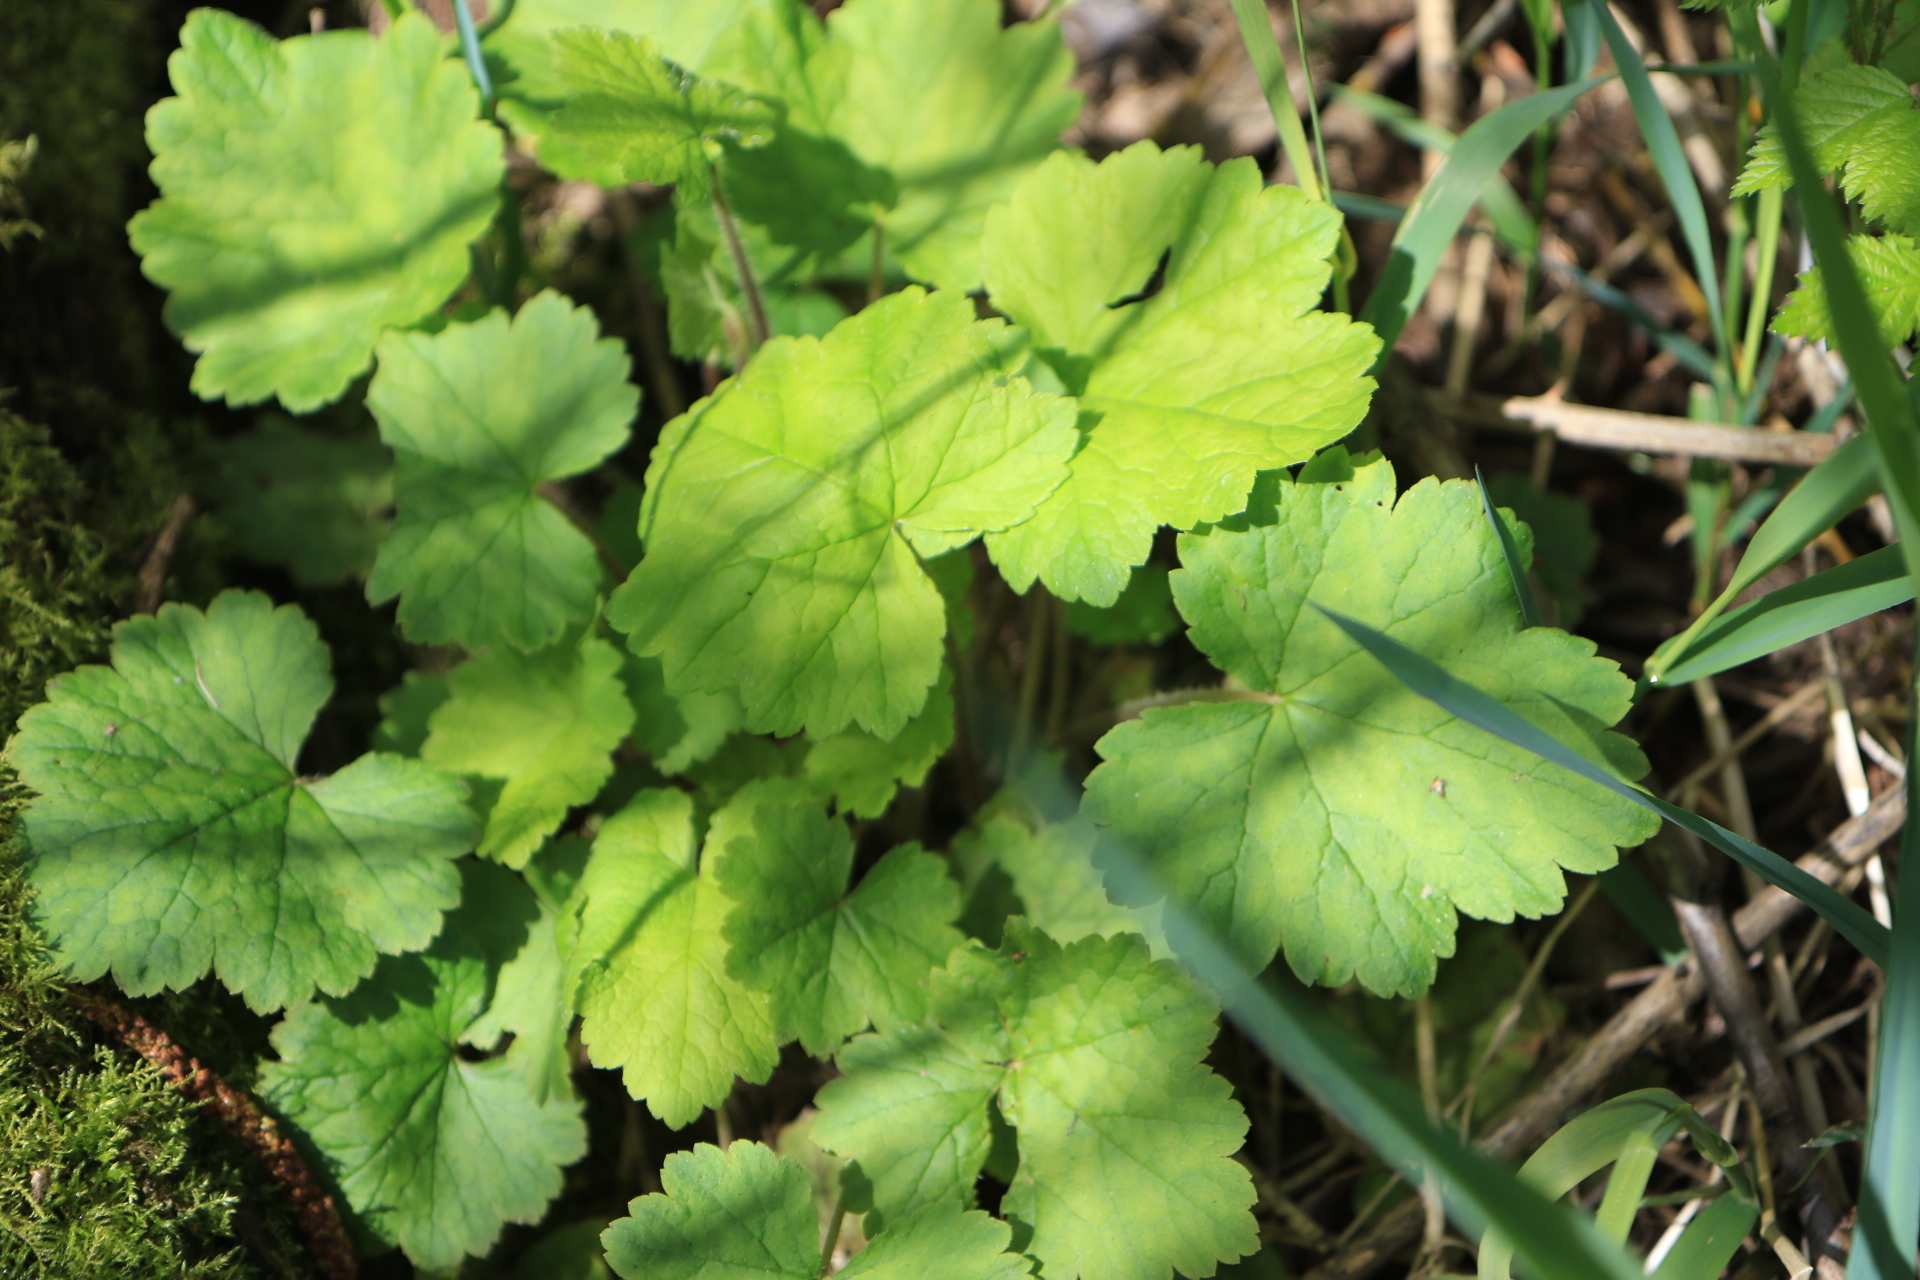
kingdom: Plantae
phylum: Tracheophyta
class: Magnoliopsida
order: Saxifragales
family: Saxifragaceae
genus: Tellima
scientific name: Tellima grandiflora
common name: Fringecups
